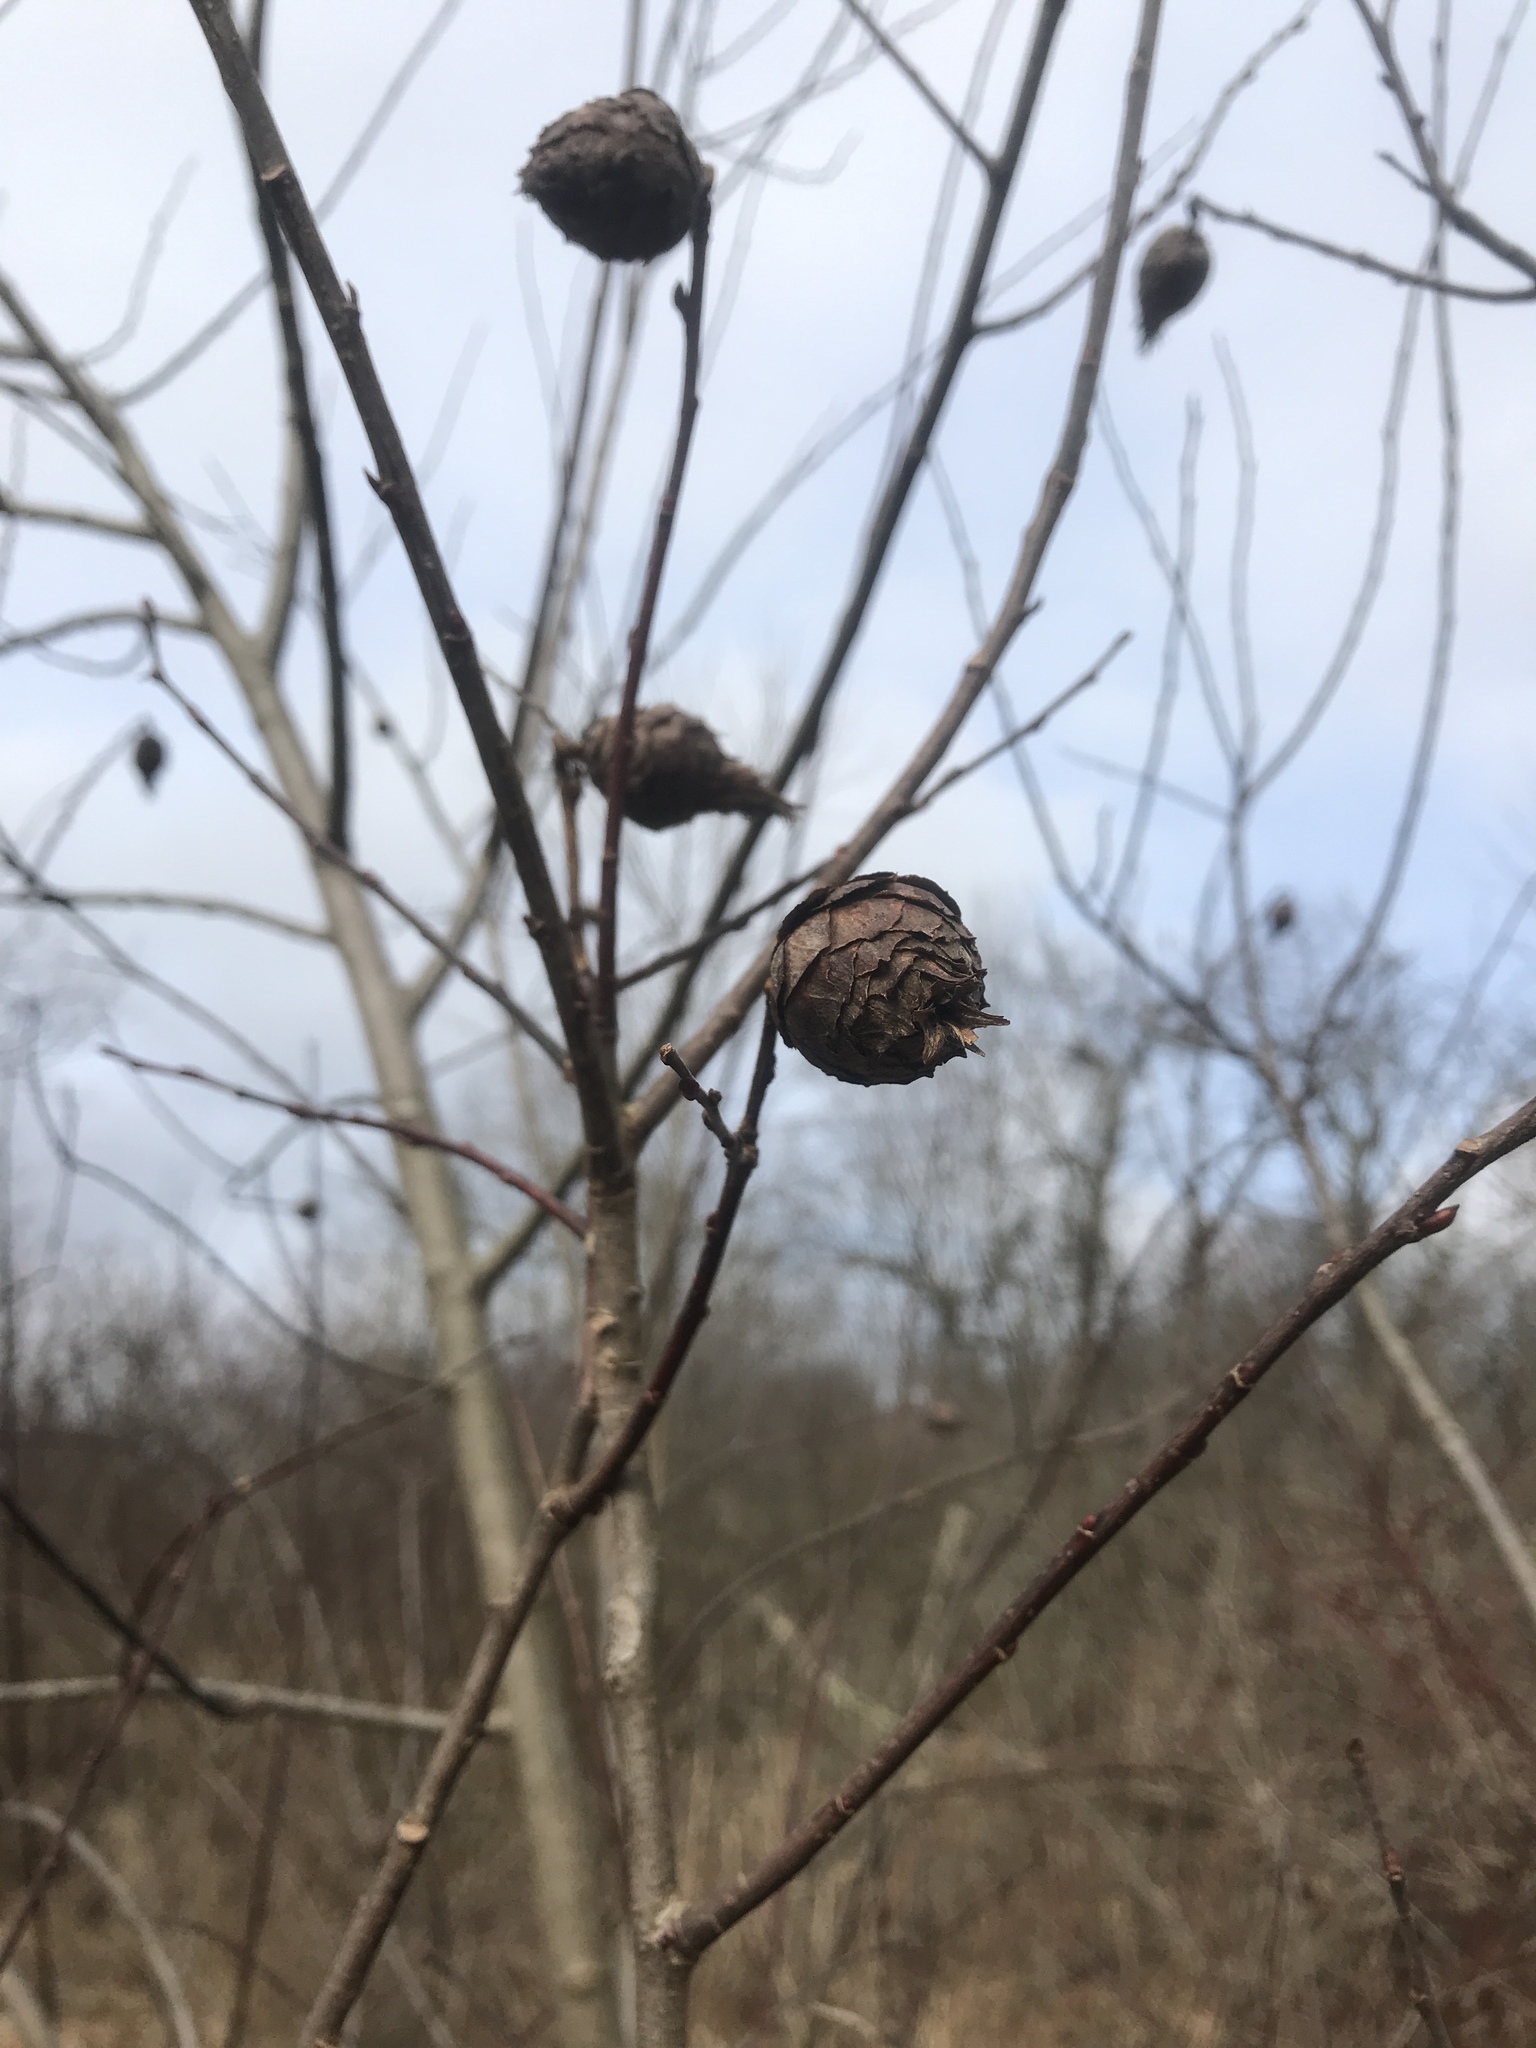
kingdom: Animalia
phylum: Arthropoda
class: Insecta
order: Diptera
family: Cecidomyiidae
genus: Rabdophaga
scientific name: Rabdophaga strobiloides
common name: Willow pinecone gall midge
